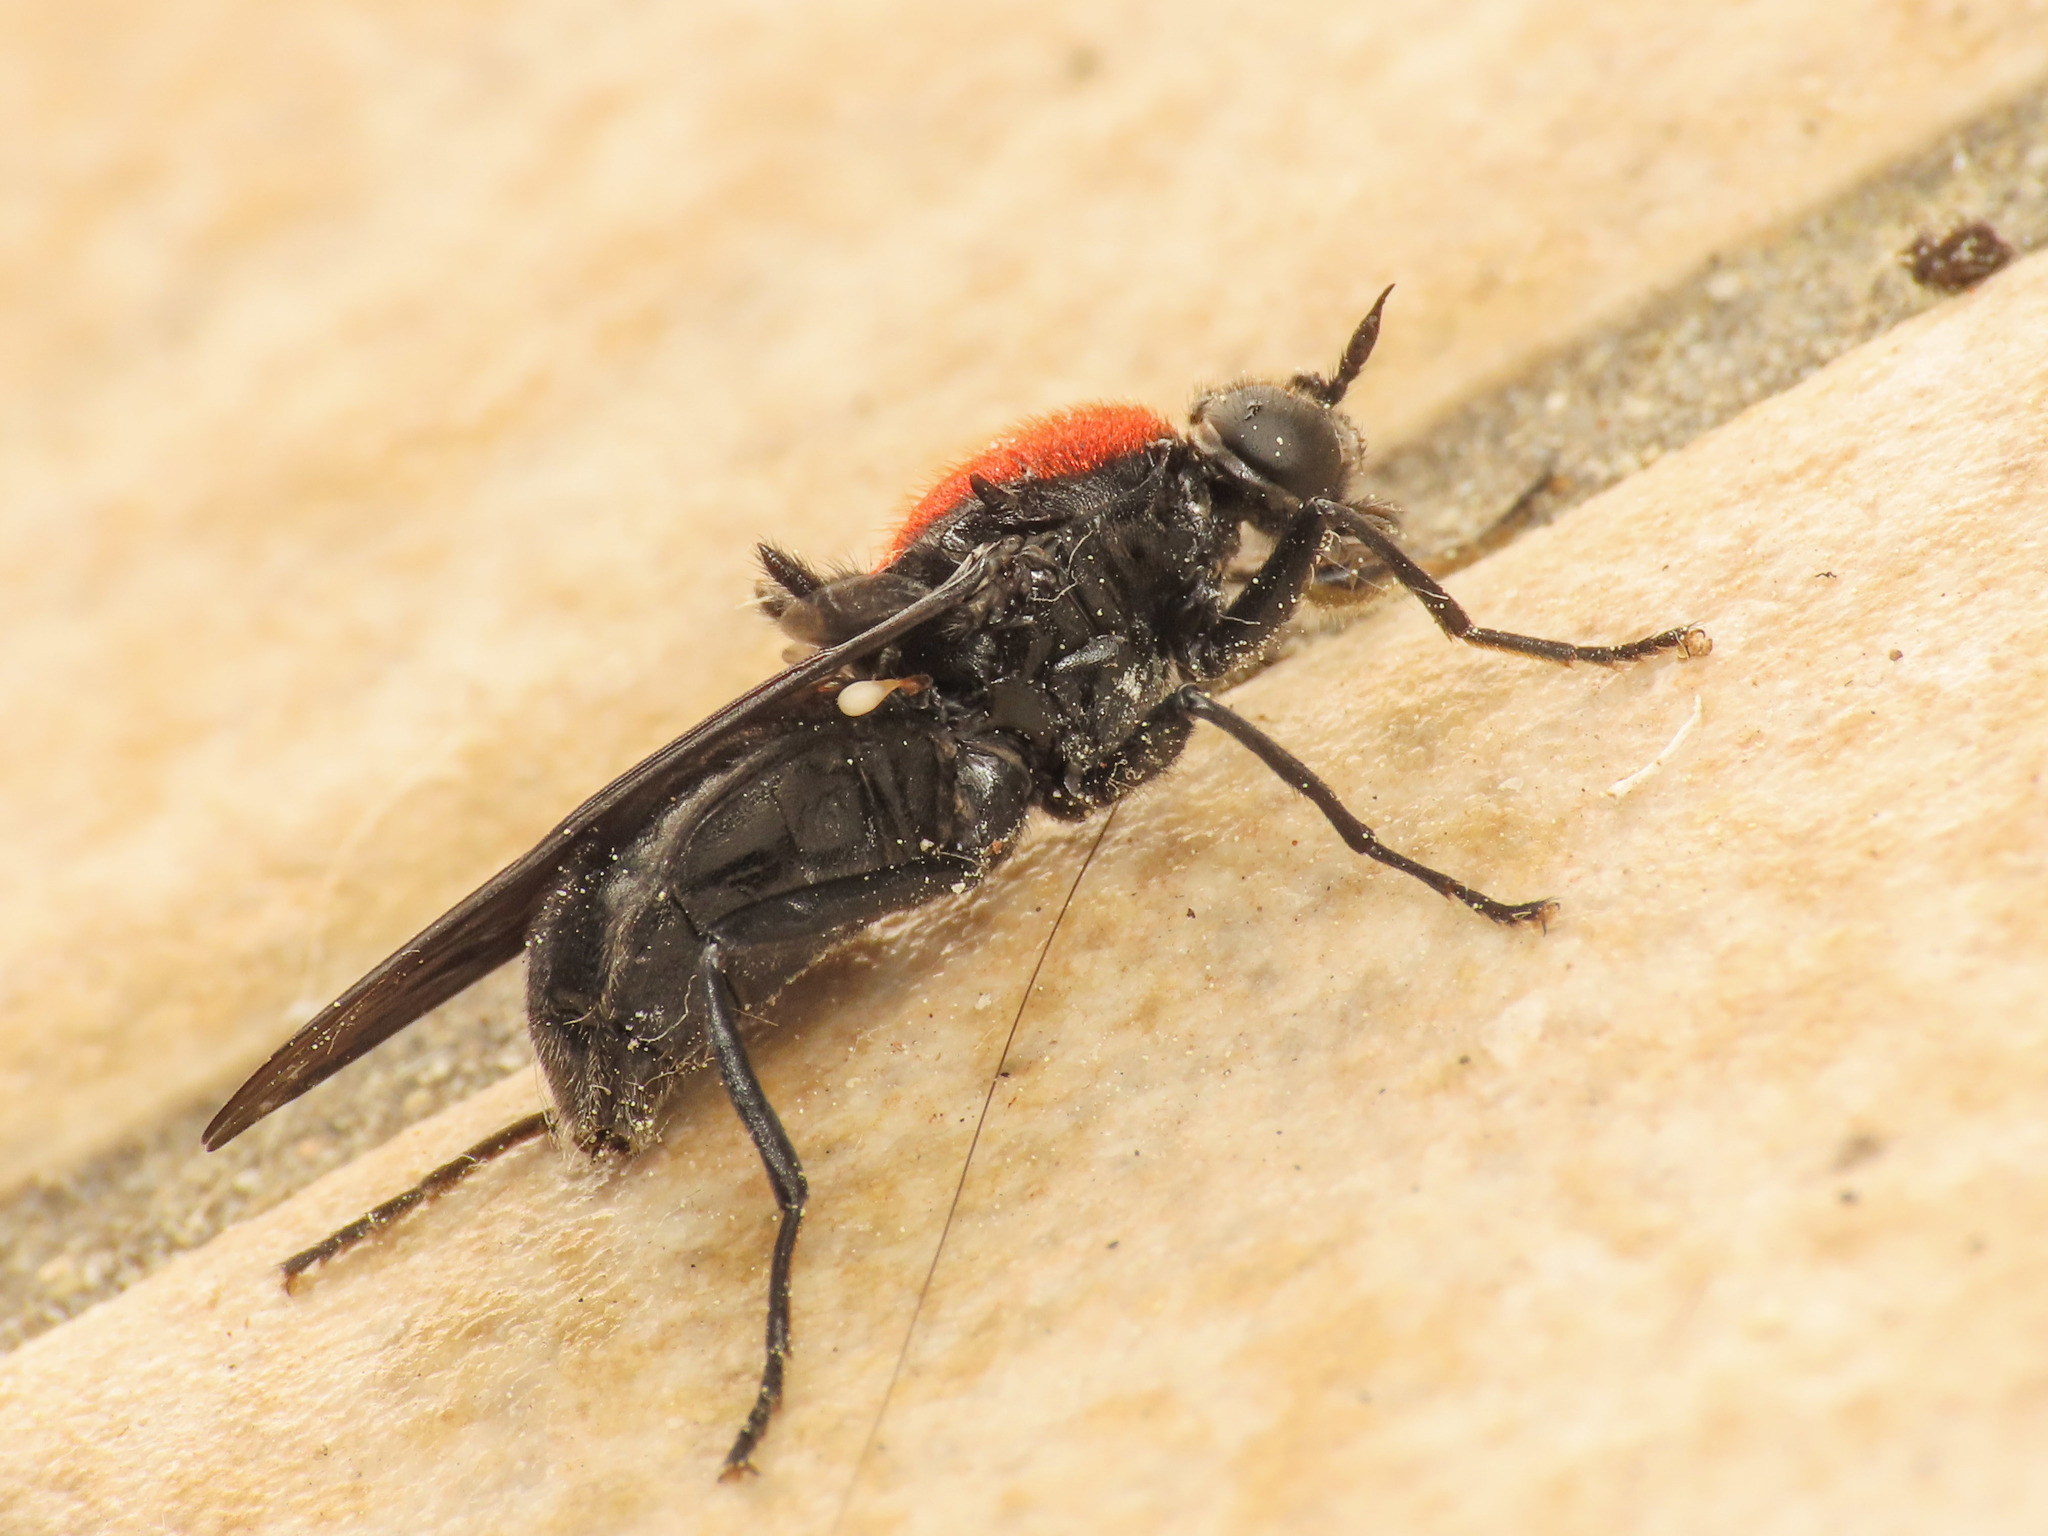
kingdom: Animalia
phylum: Arthropoda
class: Insecta
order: Diptera
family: Stratiomyidae
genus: Clitellaria
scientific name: Clitellaria ephippium
